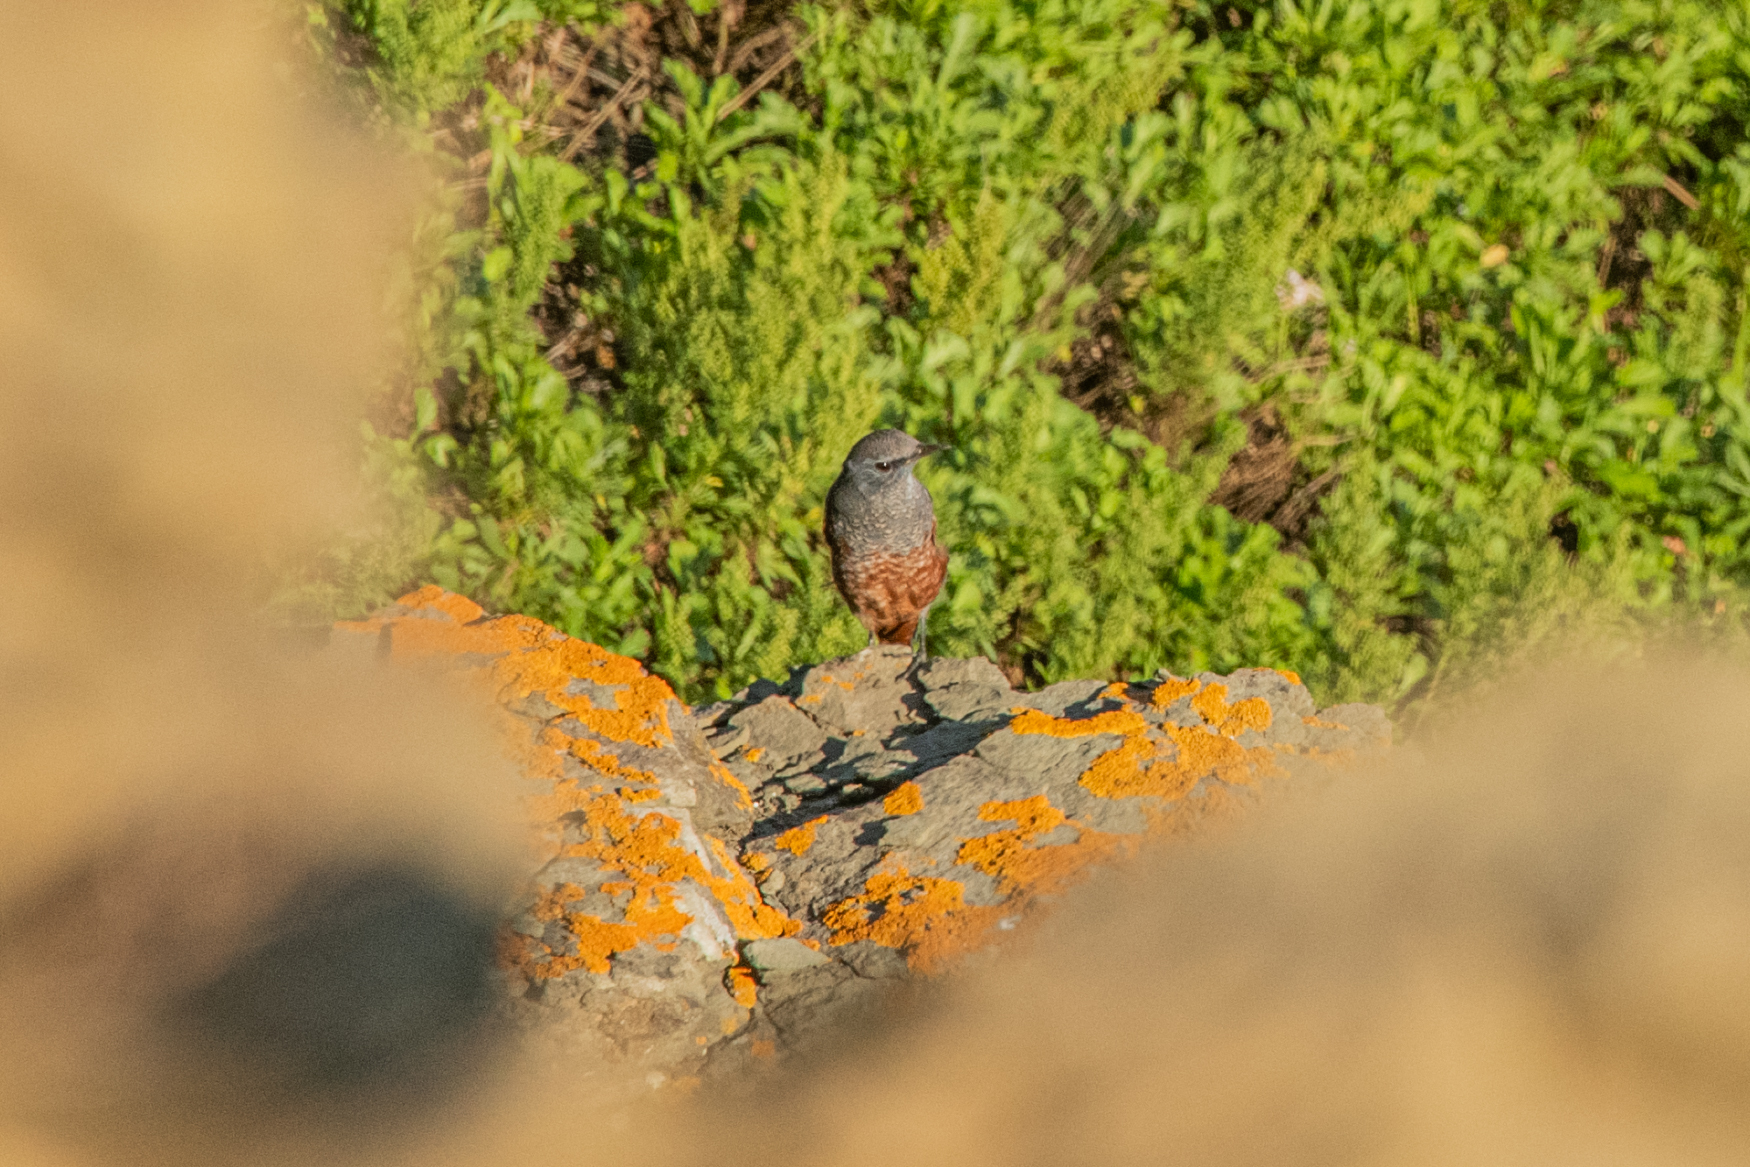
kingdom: Animalia
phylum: Chordata
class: Aves
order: Passeriformes
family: Muscicapidae
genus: Monticola
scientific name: Monticola solitarius
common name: Blue rock thrush
